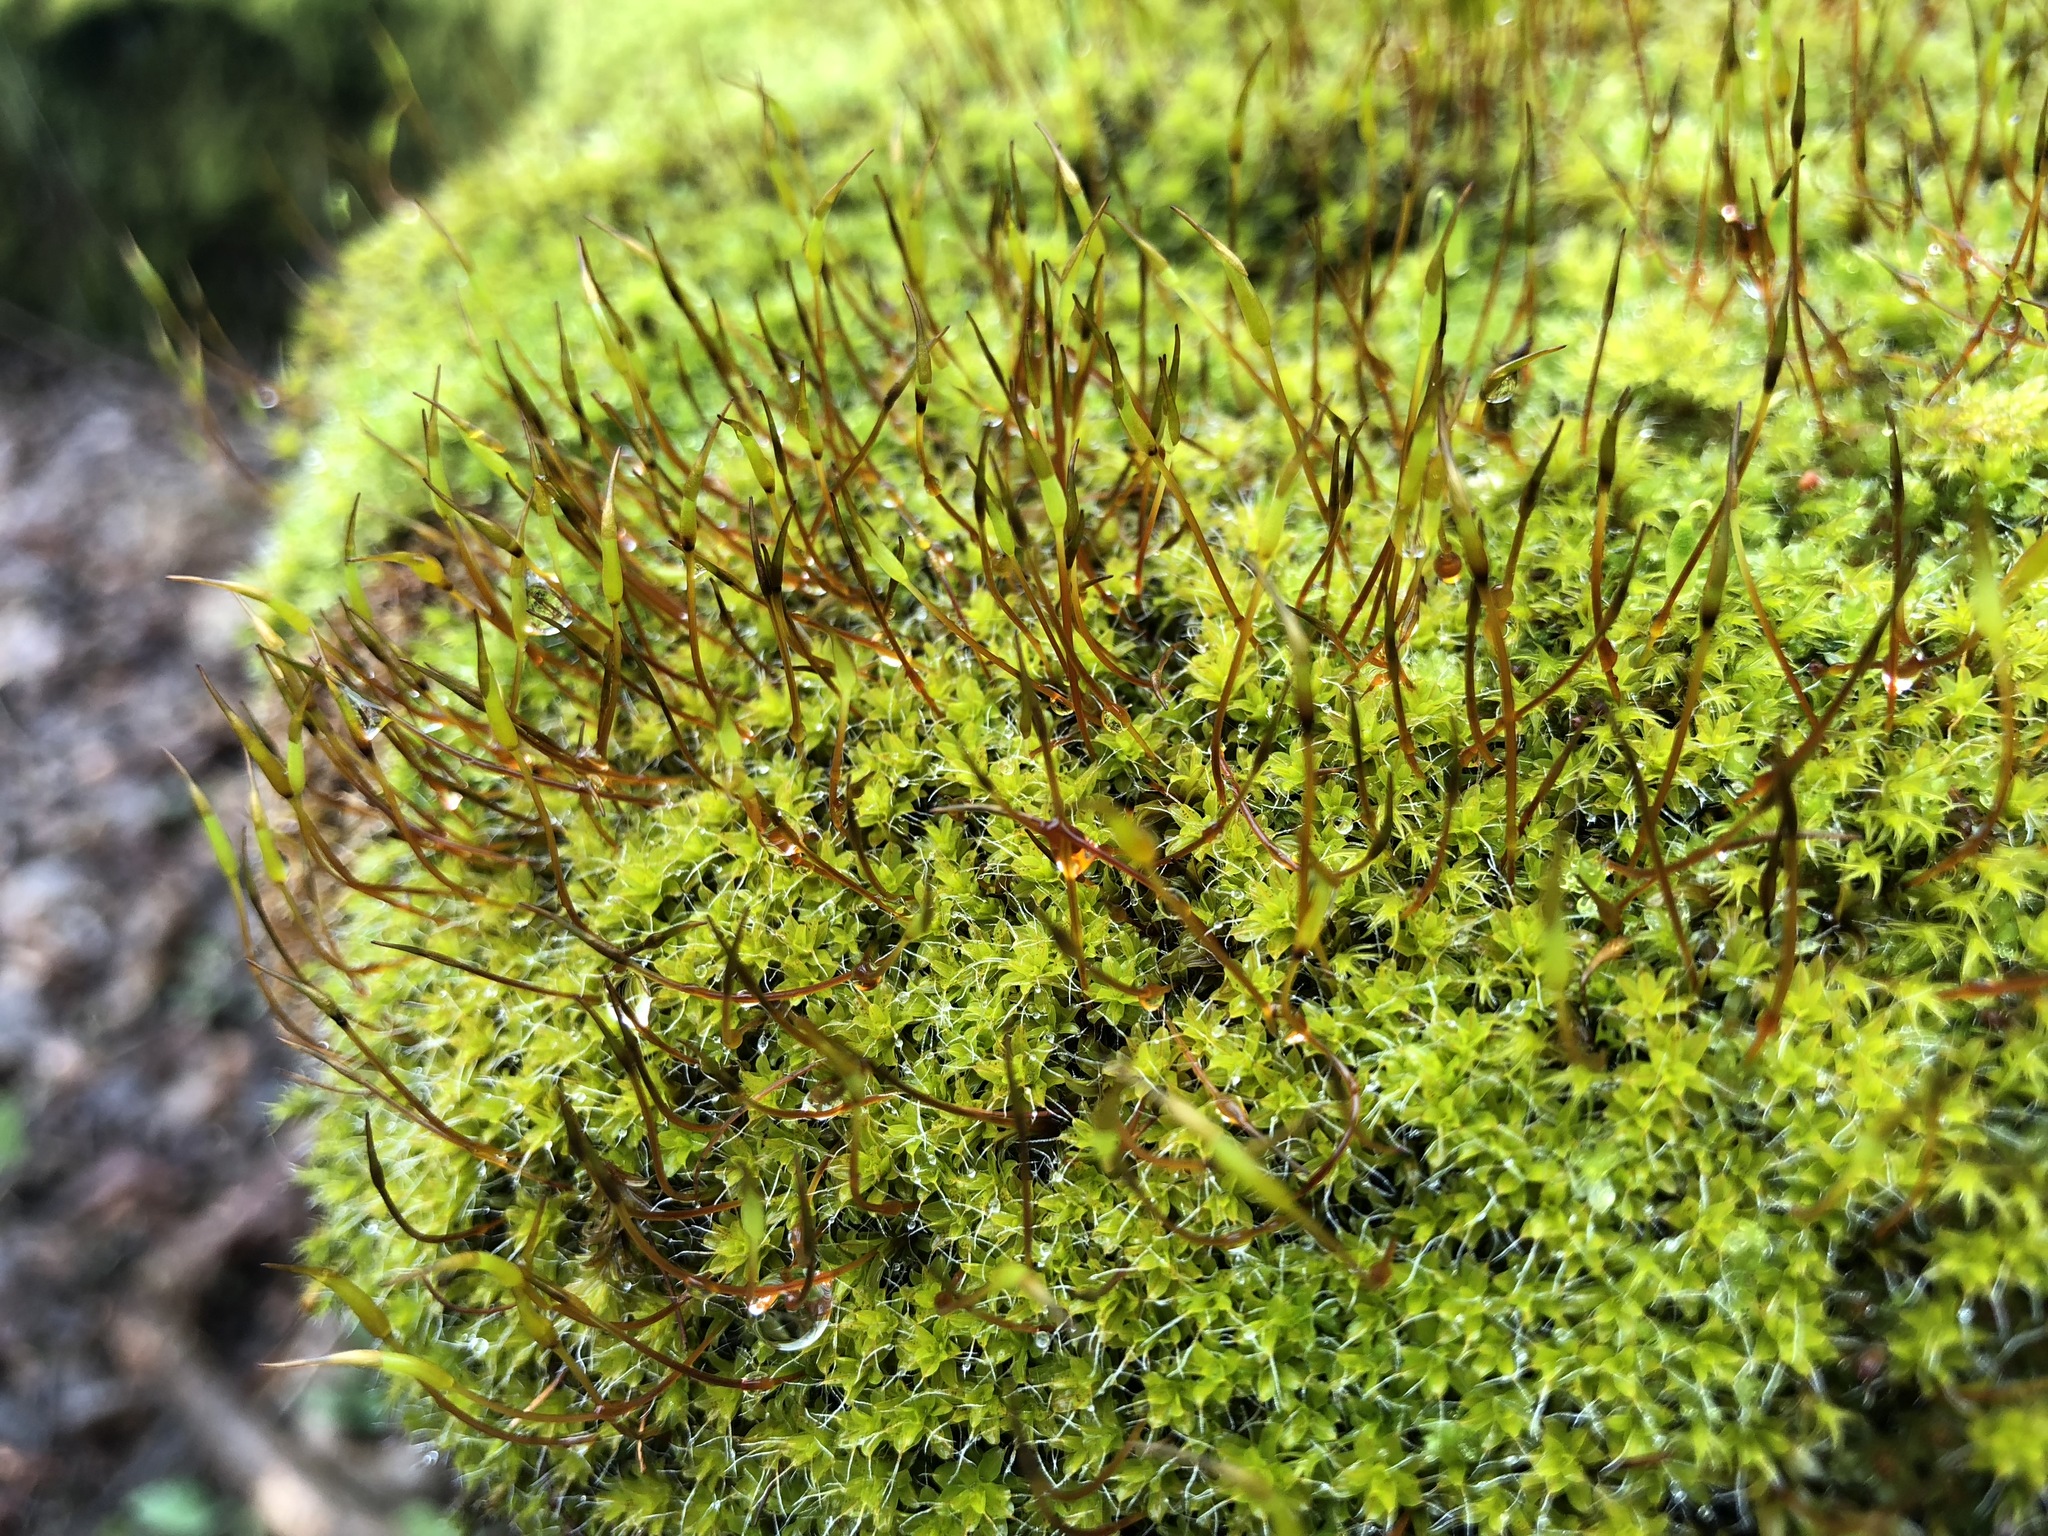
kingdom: Plantae
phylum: Bryophyta
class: Bryopsida
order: Pottiales
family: Pottiaceae
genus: Syntrichia
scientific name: Syntrichia ruralis
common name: Sidewalk screw moss
